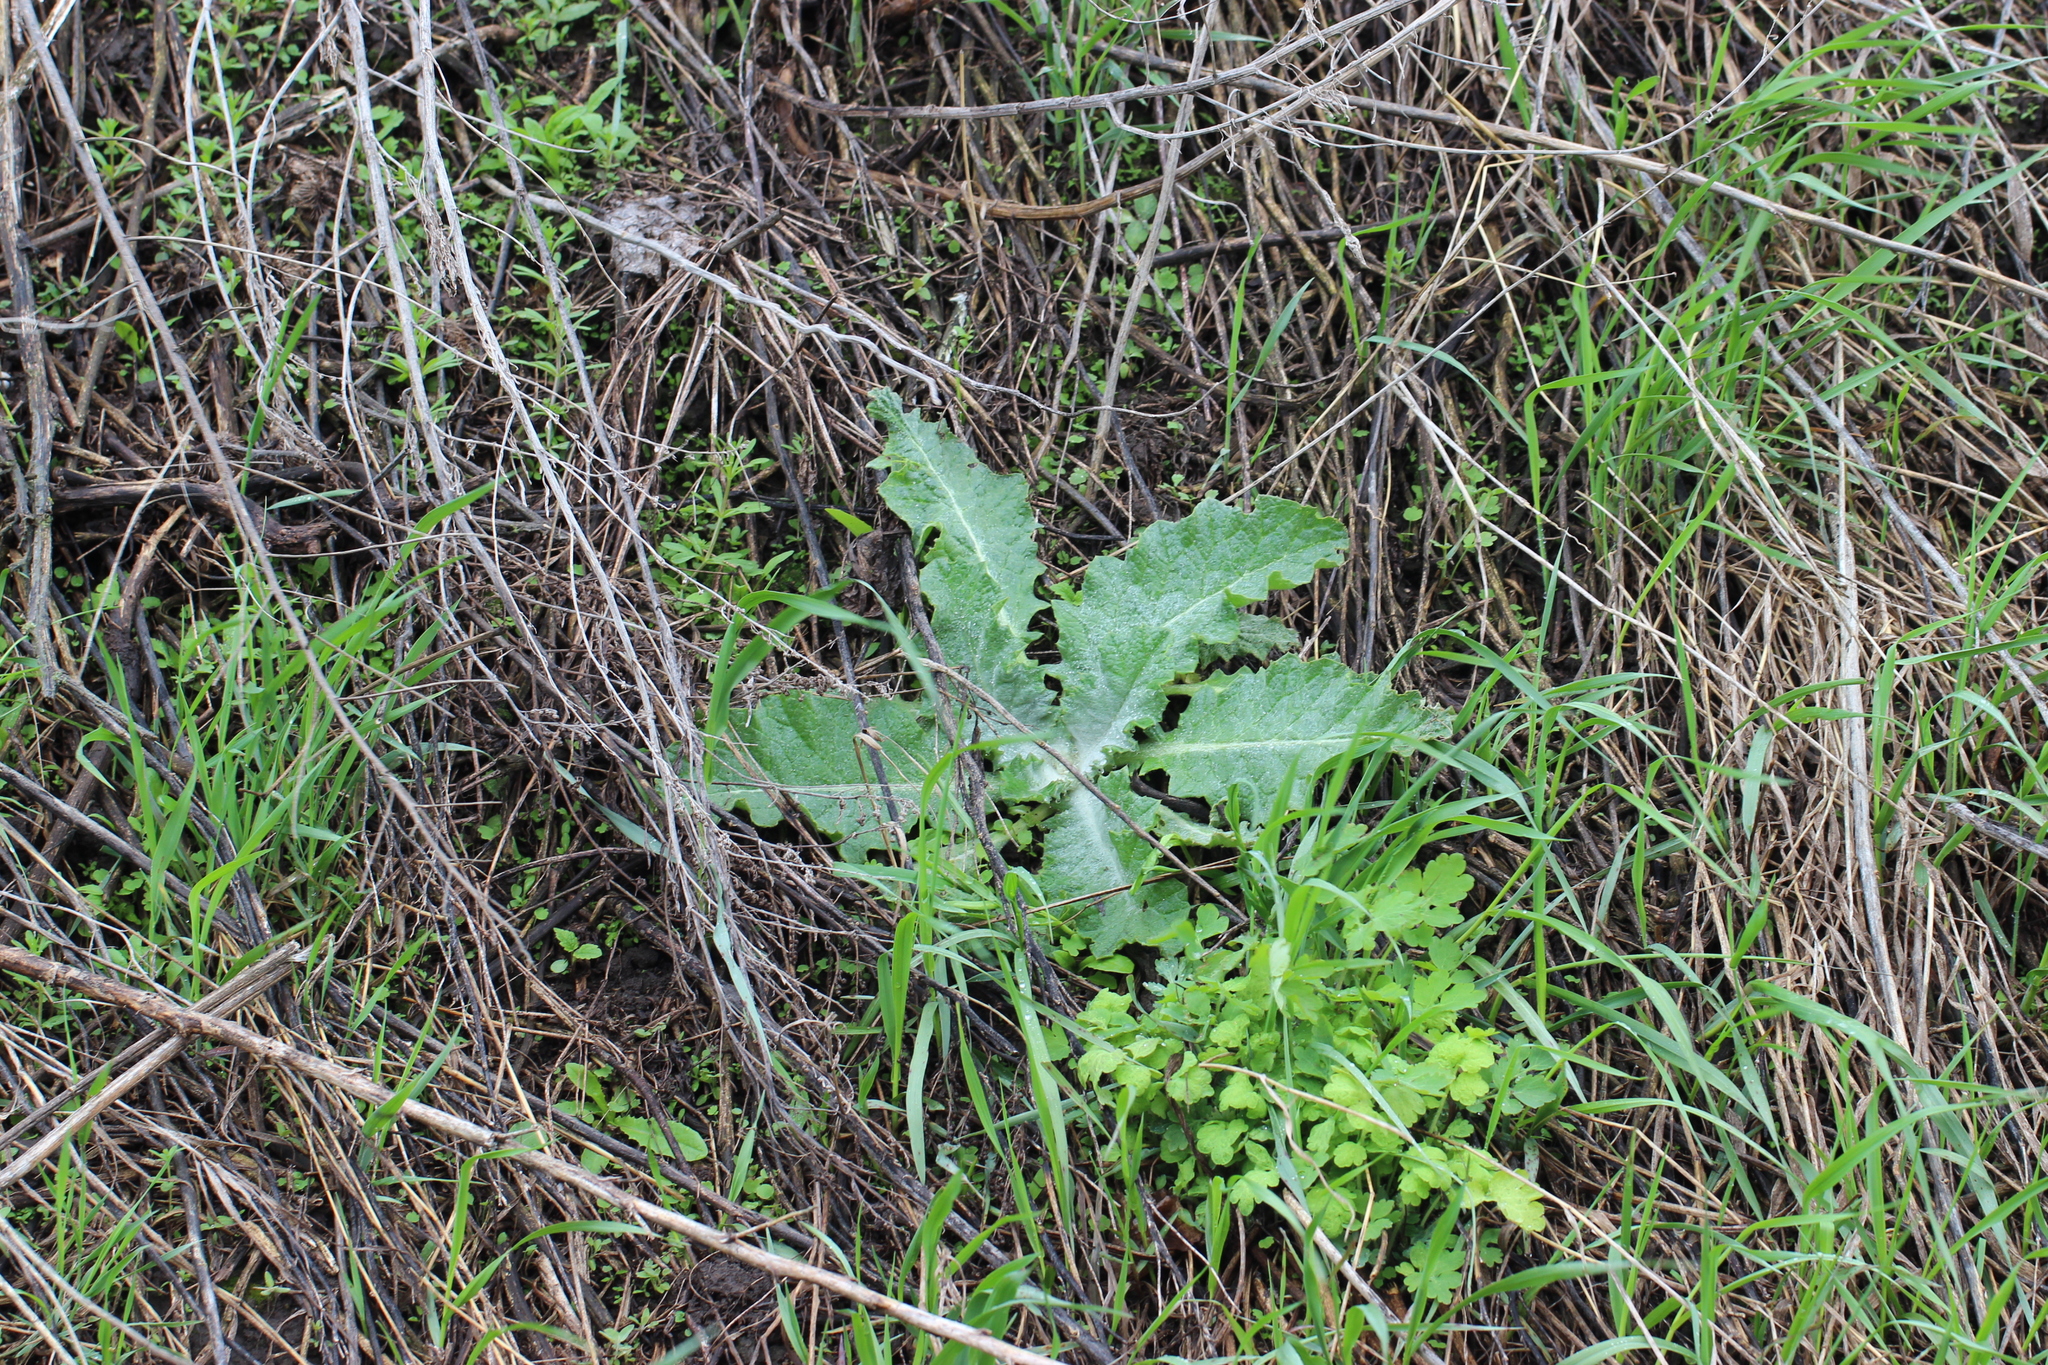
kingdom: Plantae
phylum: Tracheophyta
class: Magnoliopsida
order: Asterales
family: Asteraceae
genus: Onopordum
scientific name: Onopordum acanthium
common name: Scotch thistle
